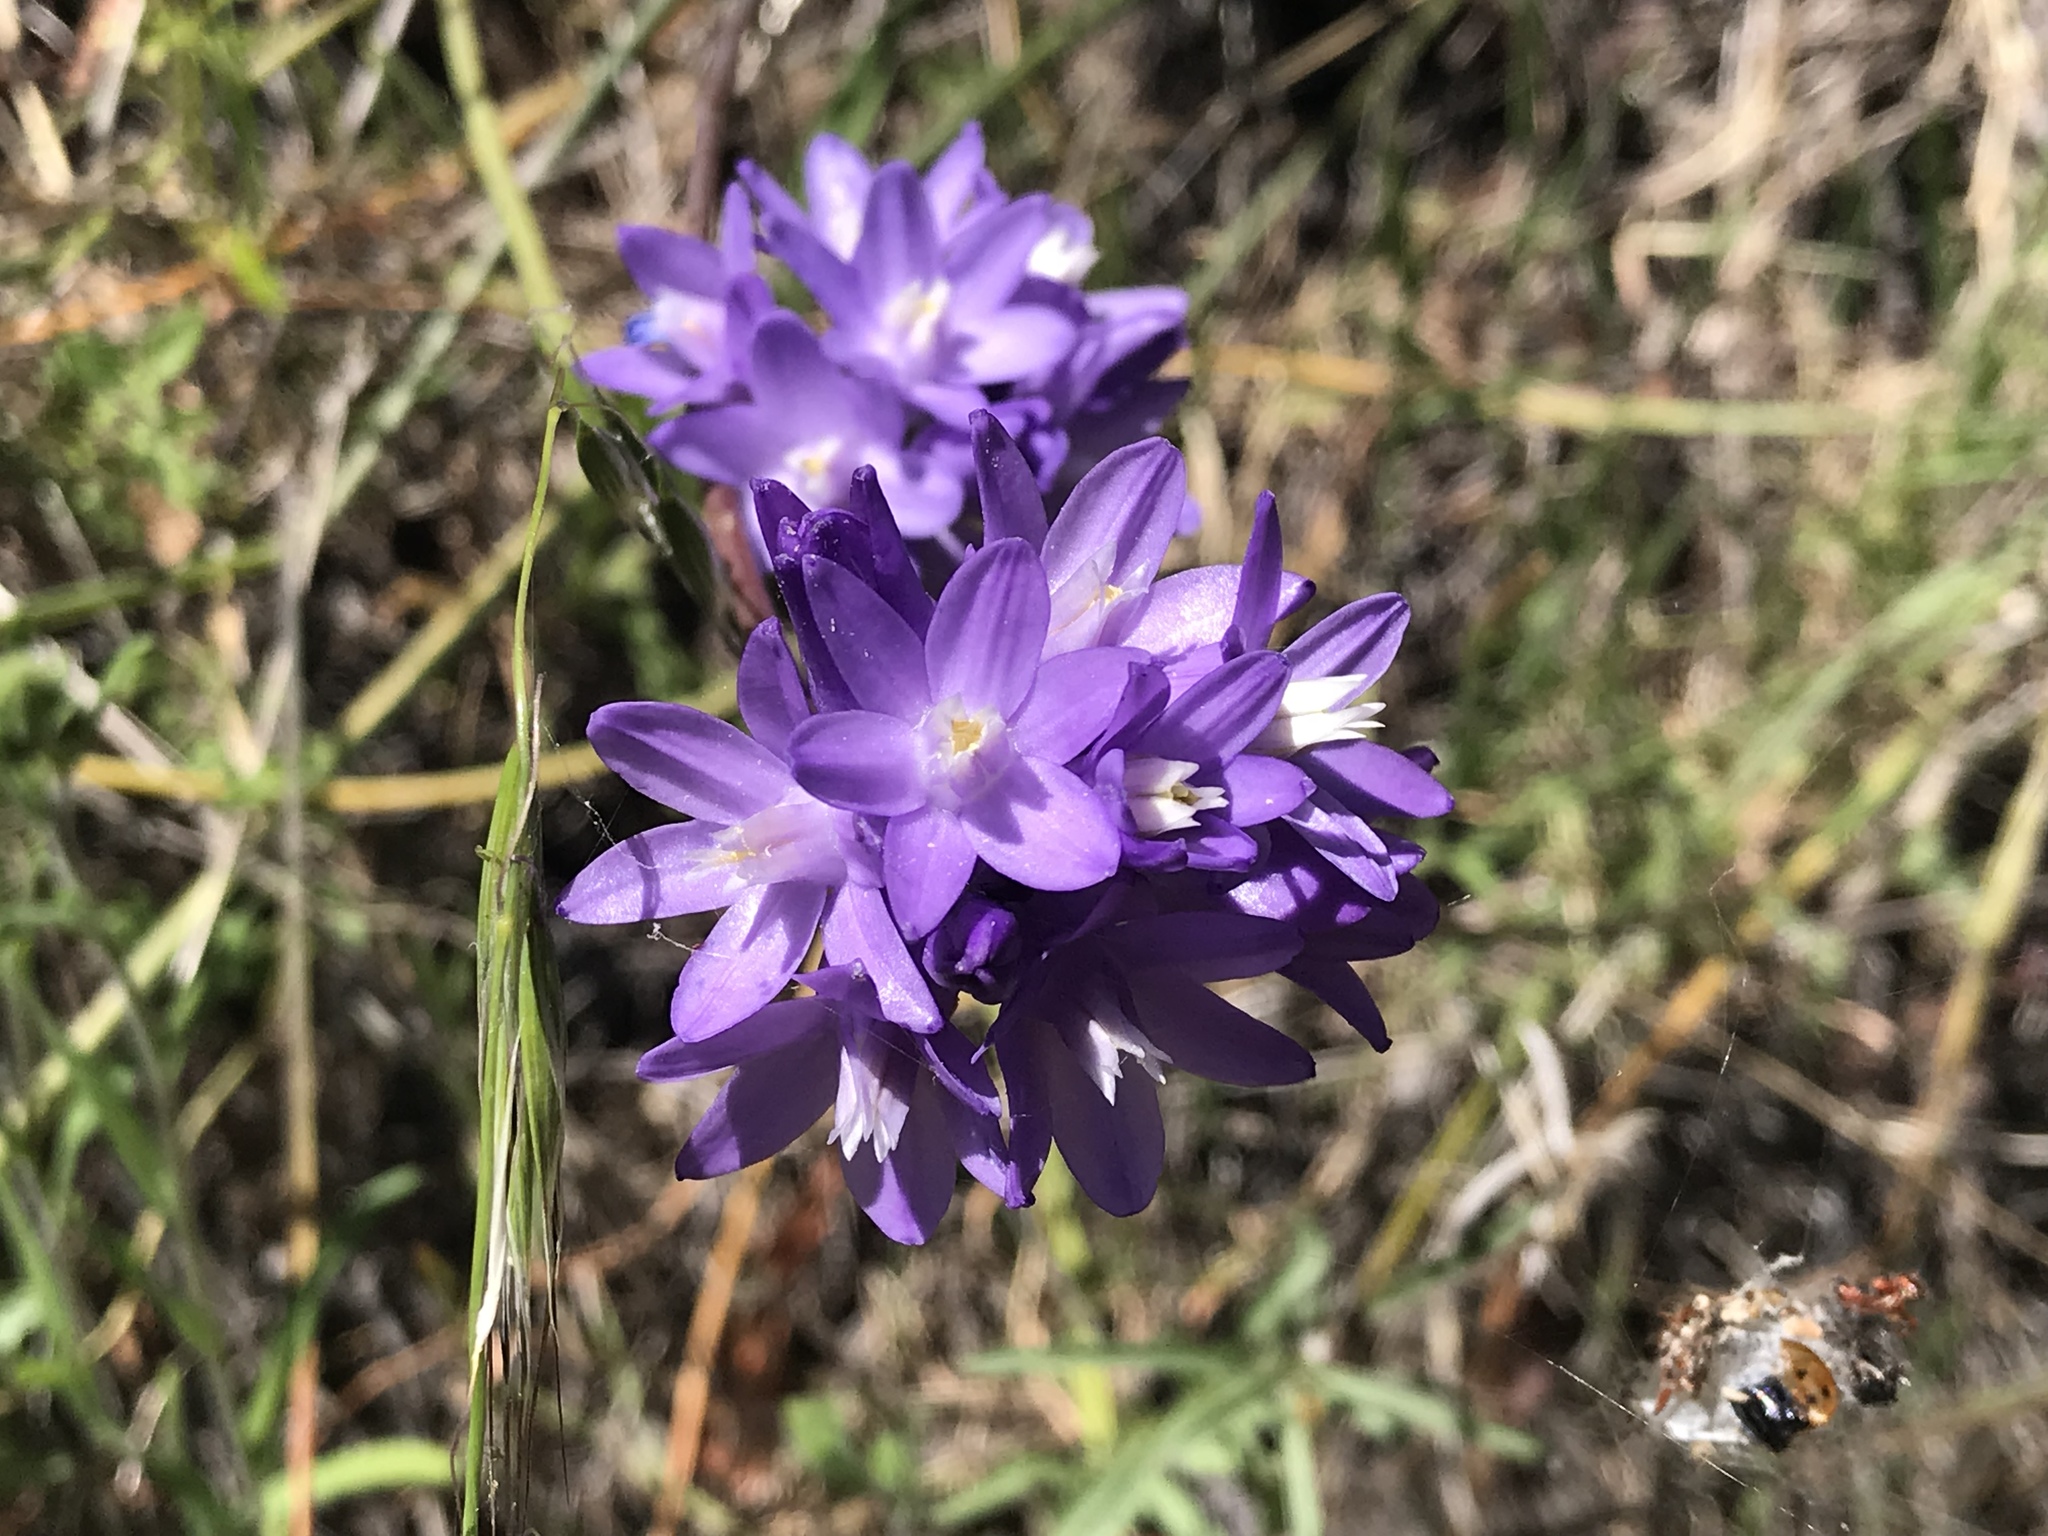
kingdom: Plantae
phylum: Tracheophyta
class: Liliopsida
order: Asparagales
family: Asparagaceae
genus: Dipterostemon
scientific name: Dipterostemon capitatus
